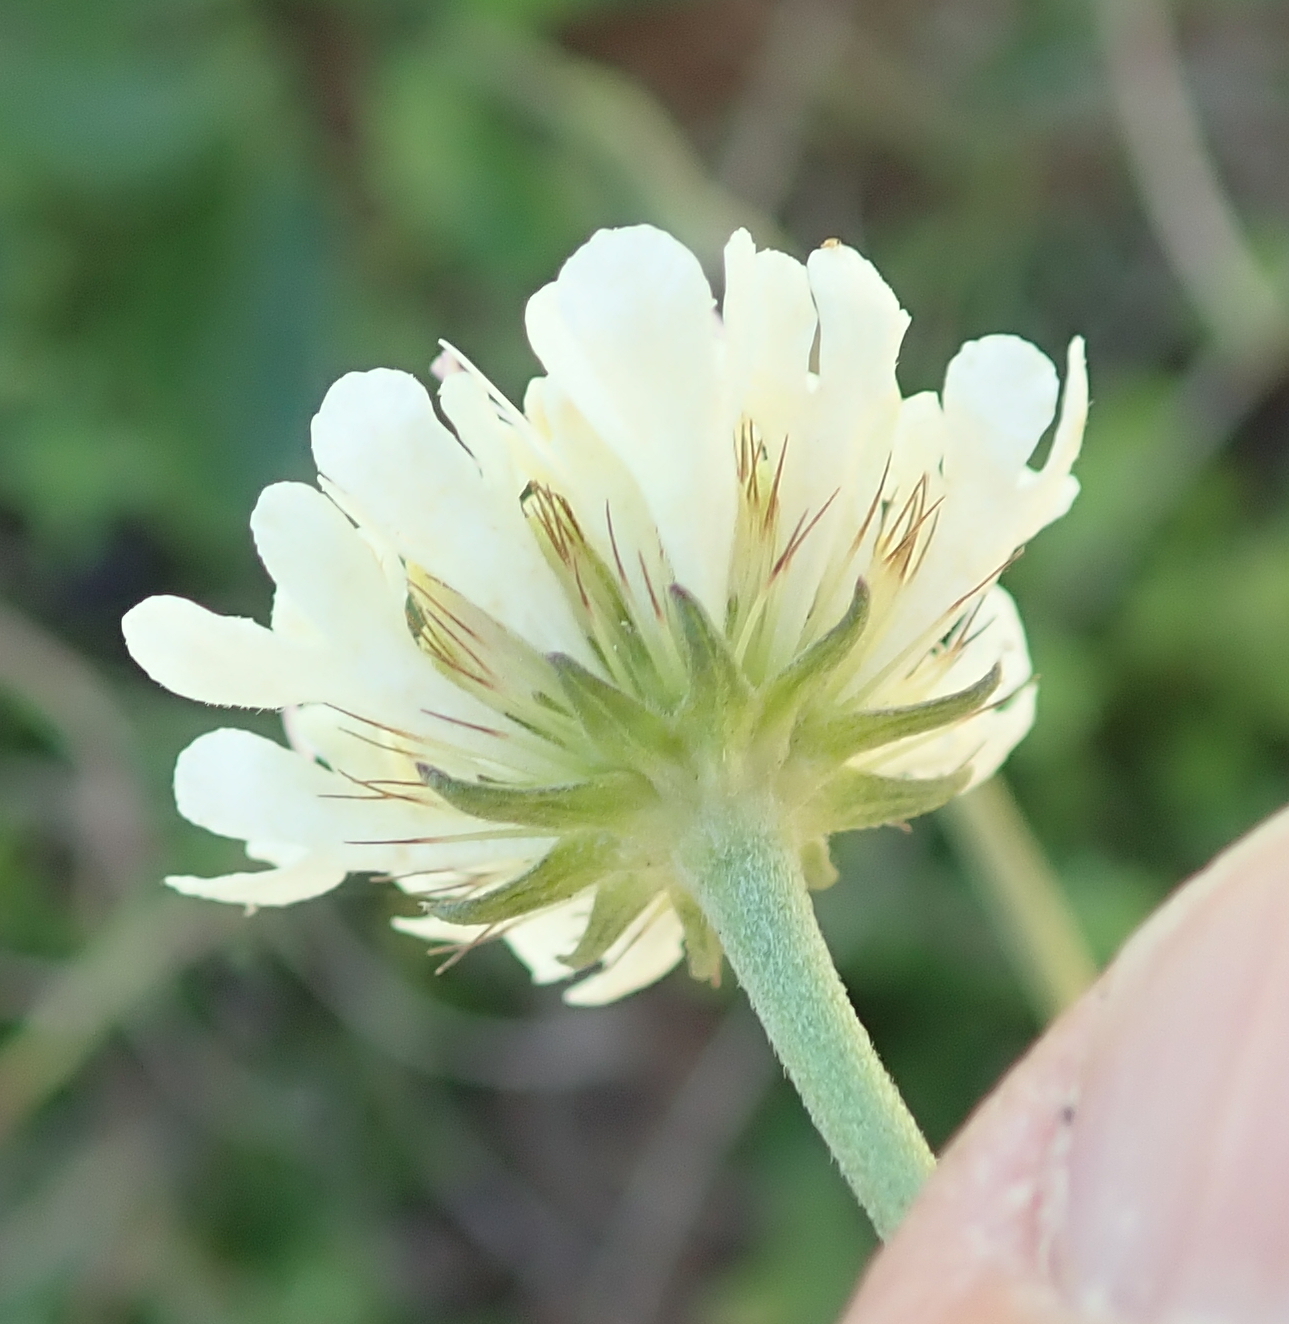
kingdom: Plantae
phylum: Tracheophyta
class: Magnoliopsida
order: Dipsacales
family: Caprifoliaceae
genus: Scabiosa
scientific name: Scabiosa columbaria
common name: Small scabious
